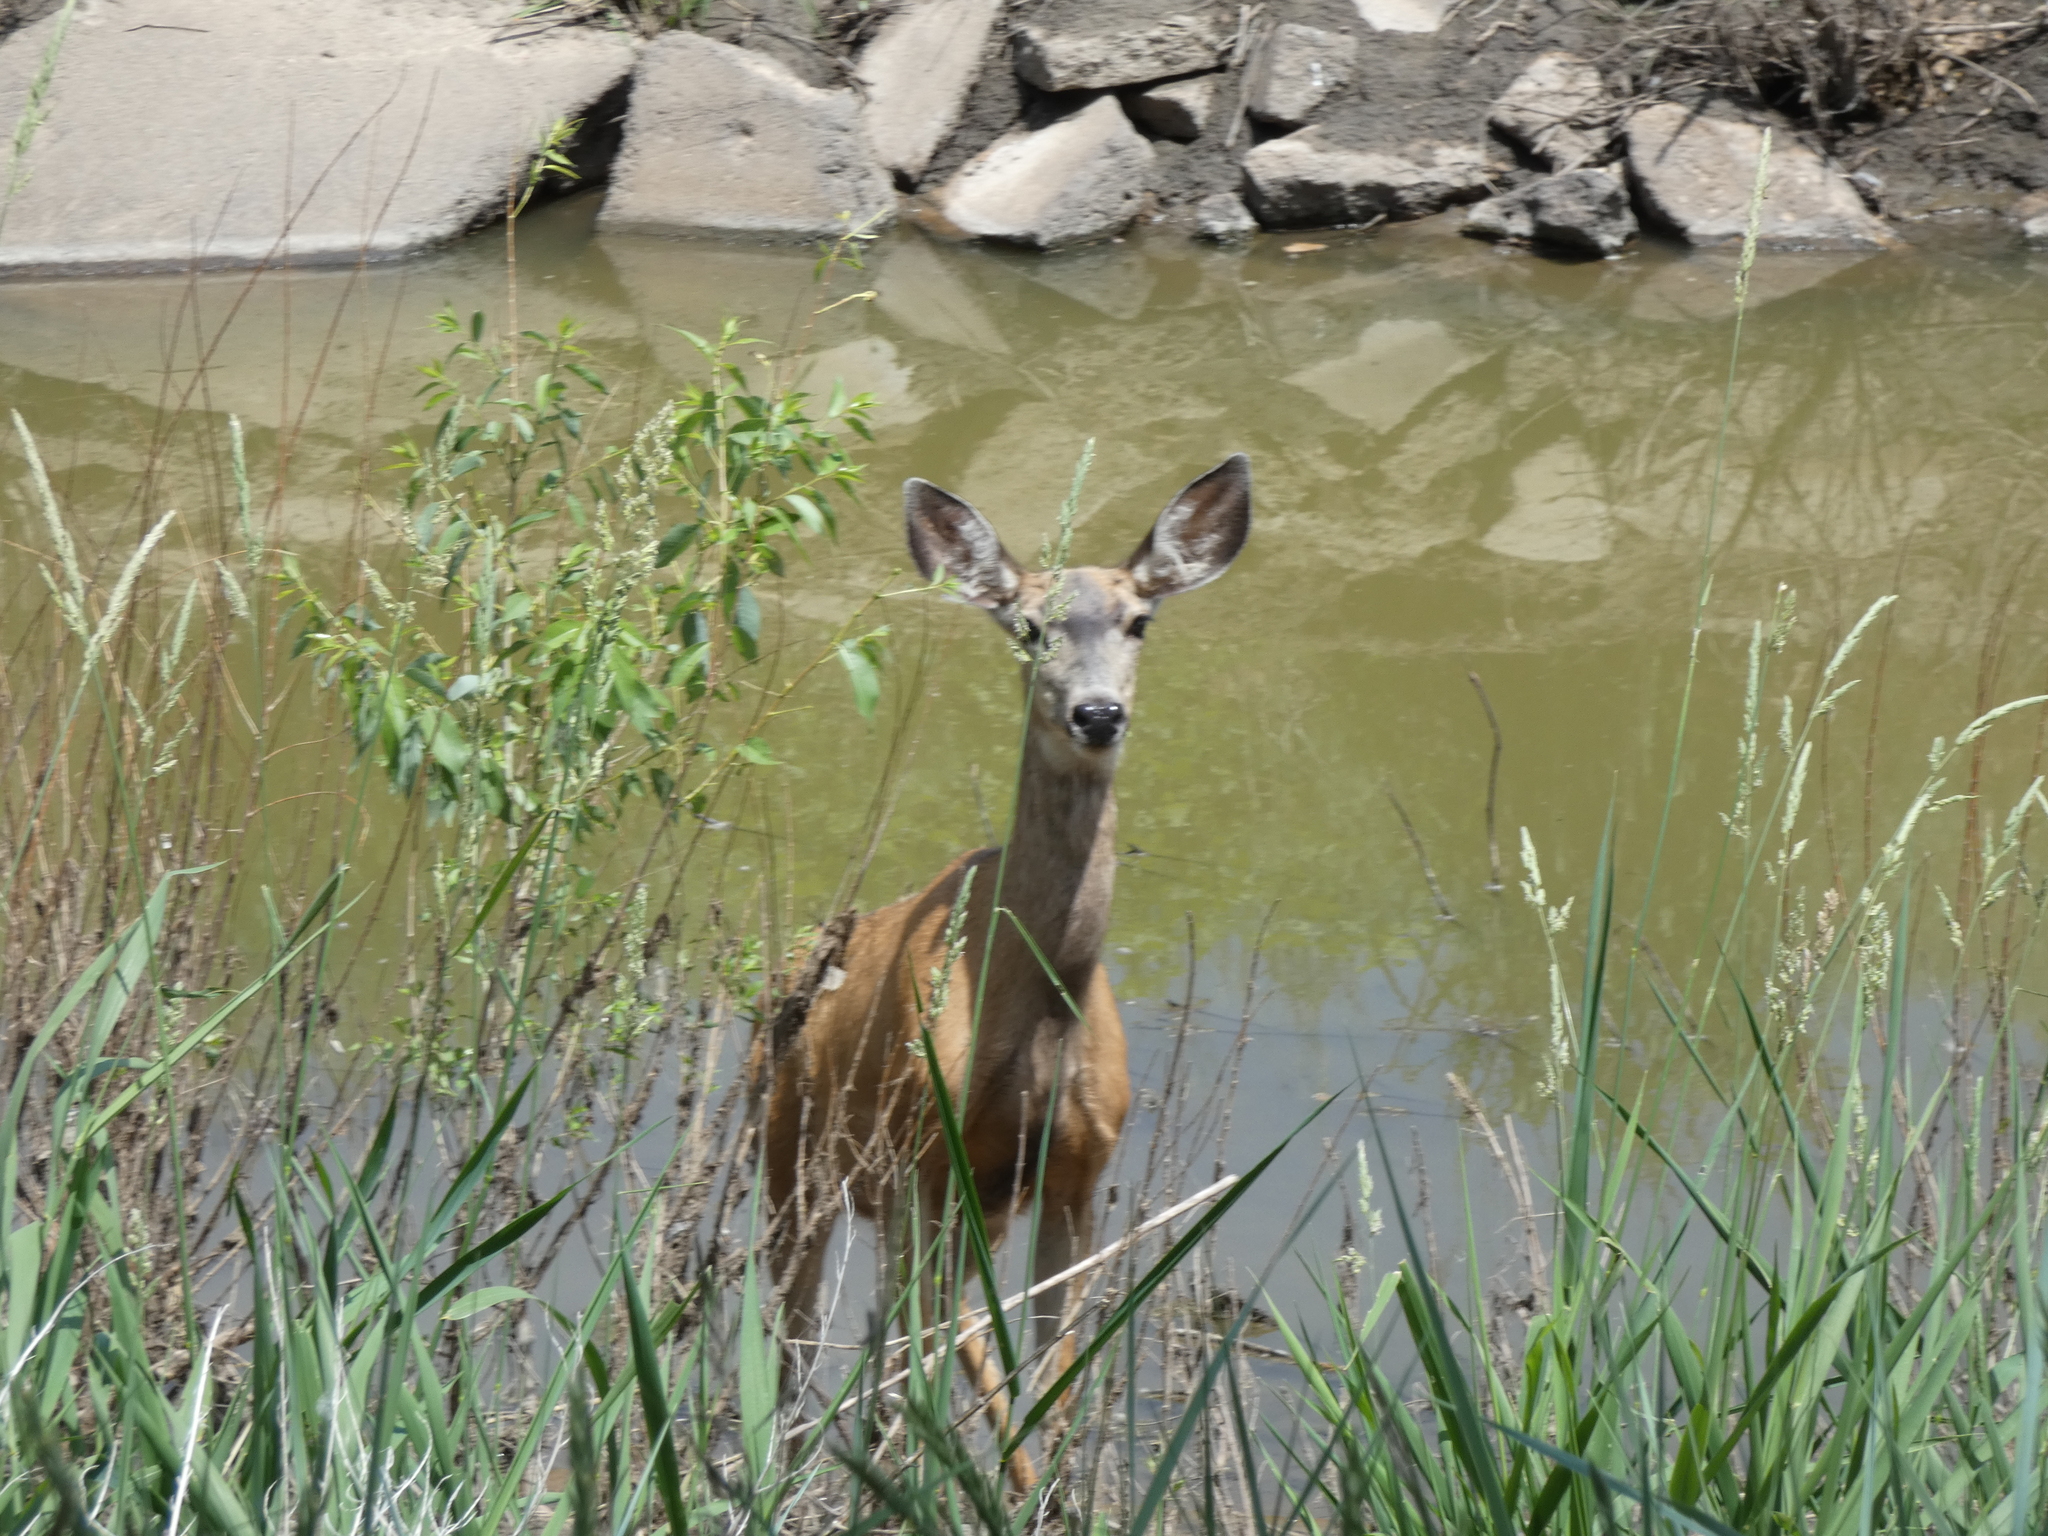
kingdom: Animalia
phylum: Chordata
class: Mammalia
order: Artiodactyla
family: Cervidae
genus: Odocoileus
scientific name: Odocoileus hemionus
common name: Mule deer
